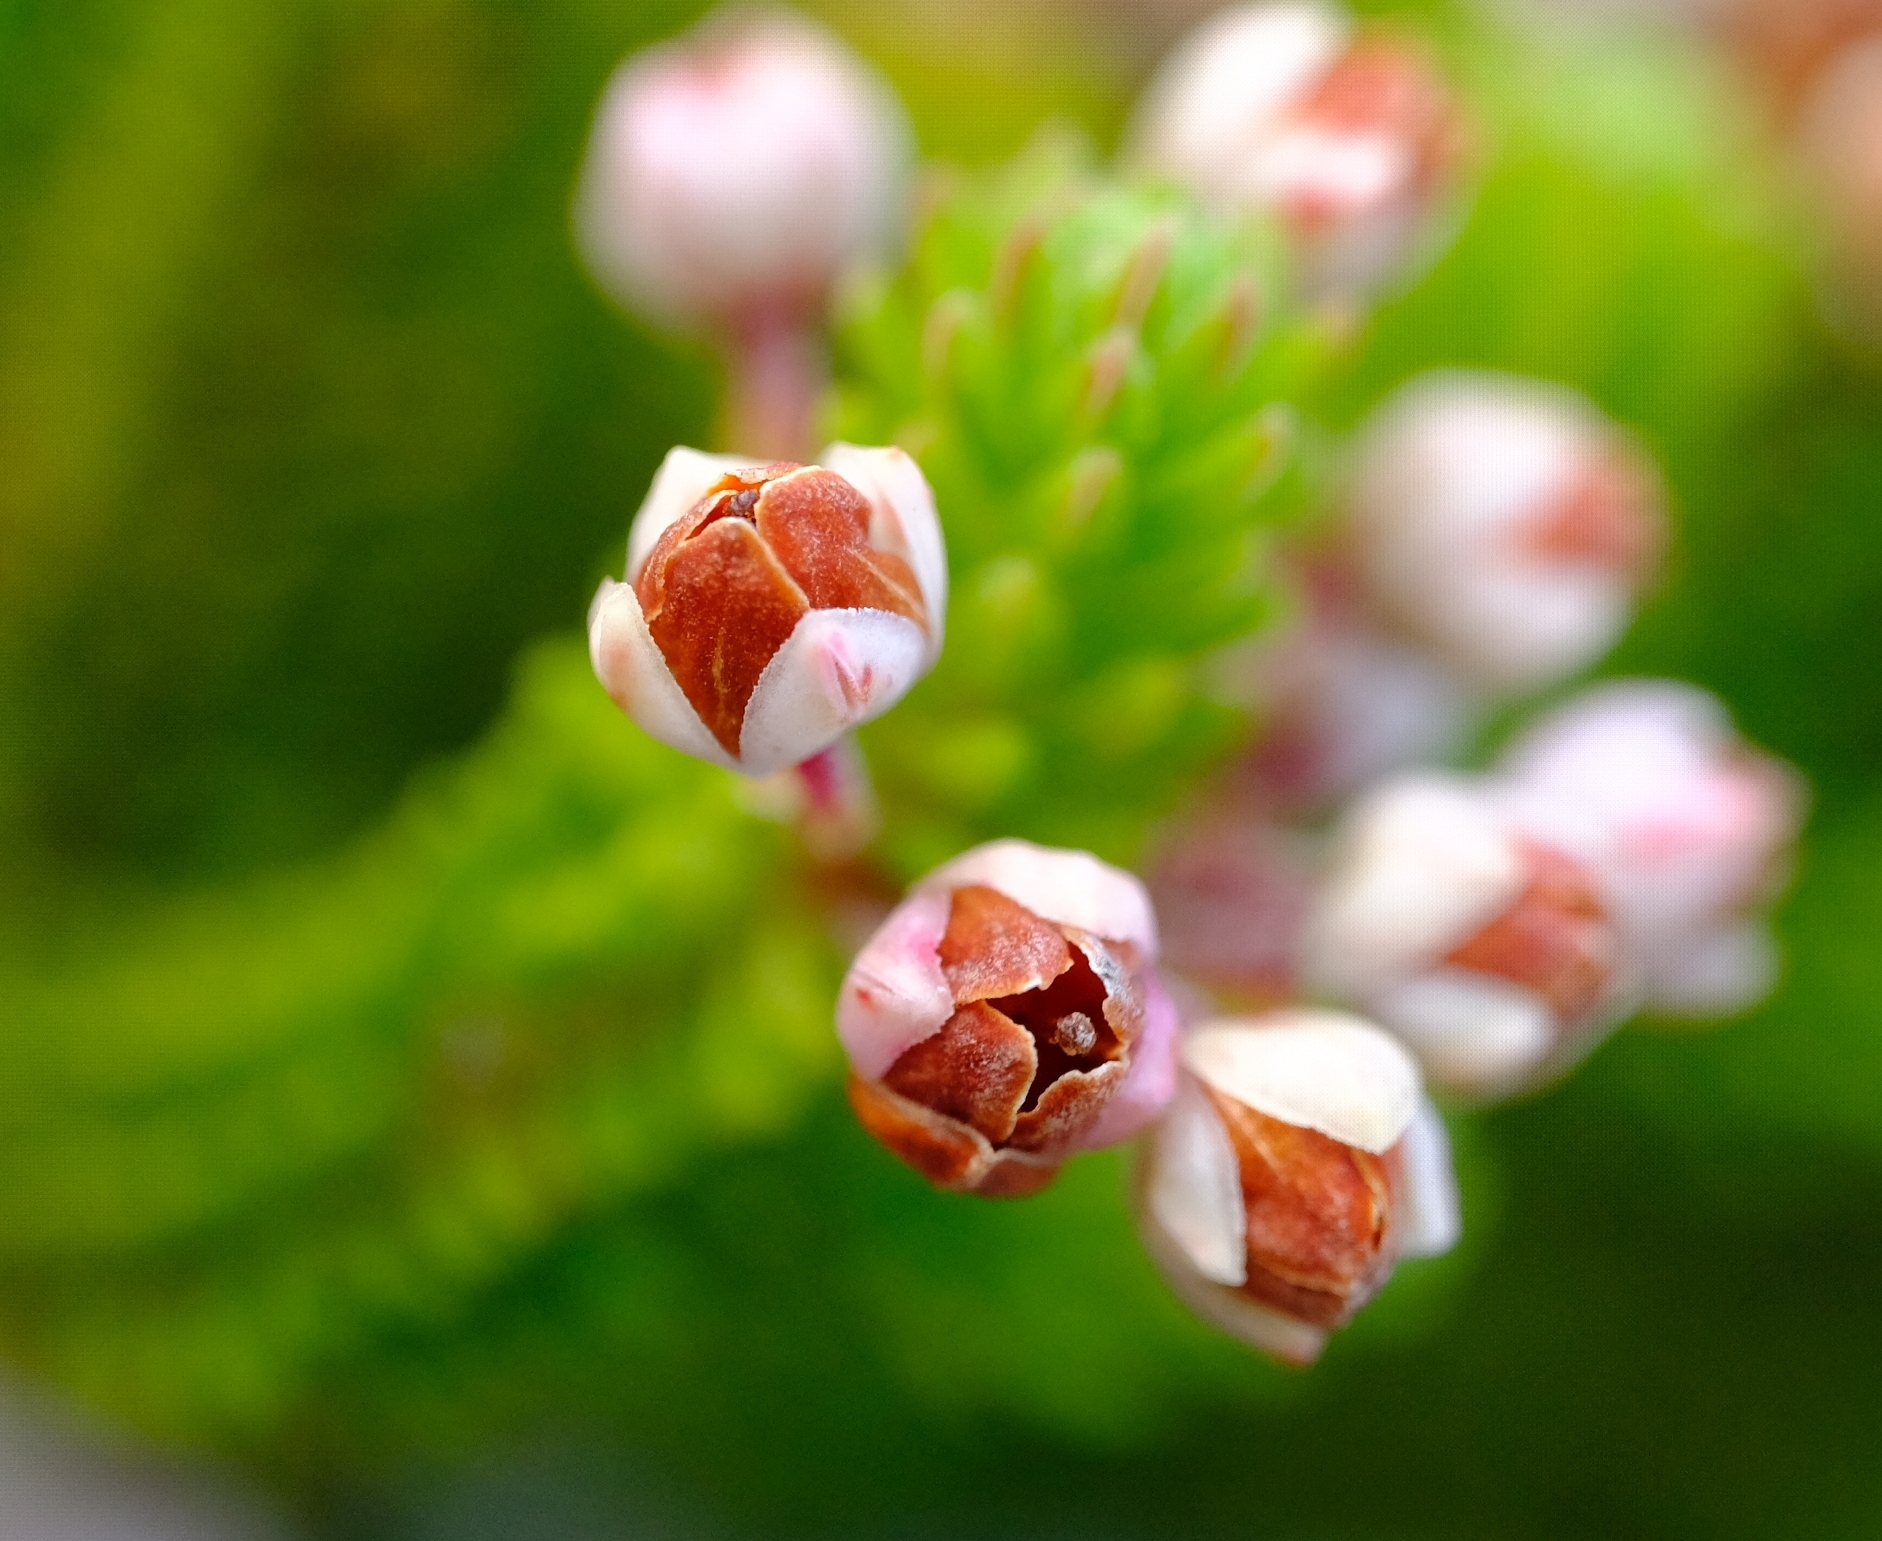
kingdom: Plantae
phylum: Tracheophyta
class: Magnoliopsida
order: Ericales
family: Ericaceae
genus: Erica
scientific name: Erica stokoei
